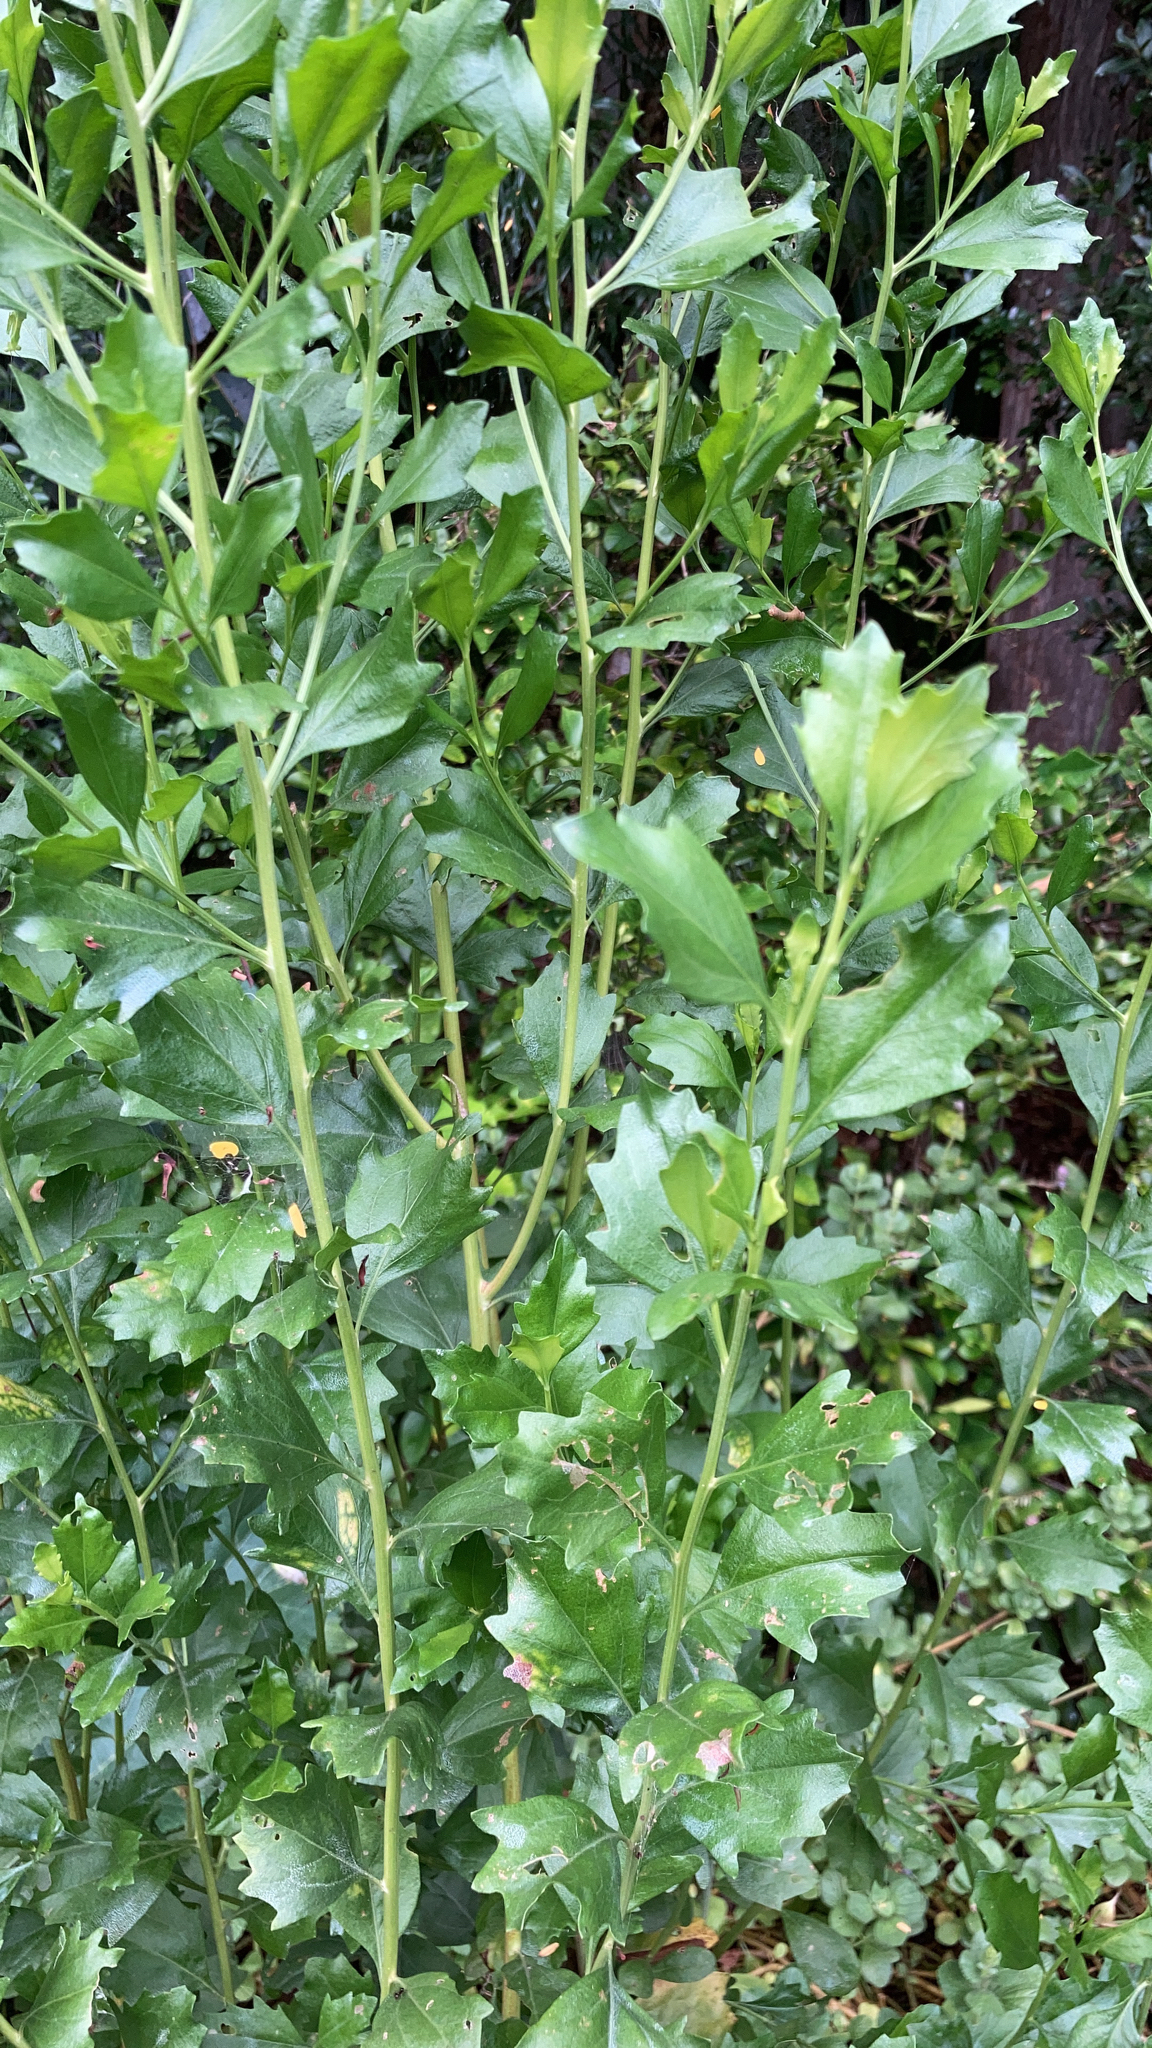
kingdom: Plantae
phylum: Tracheophyta
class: Magnoliopsida
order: Asterales
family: Asteraceae
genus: Baccharis
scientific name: Baccharis halimifolia
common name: Eastern baccharis
